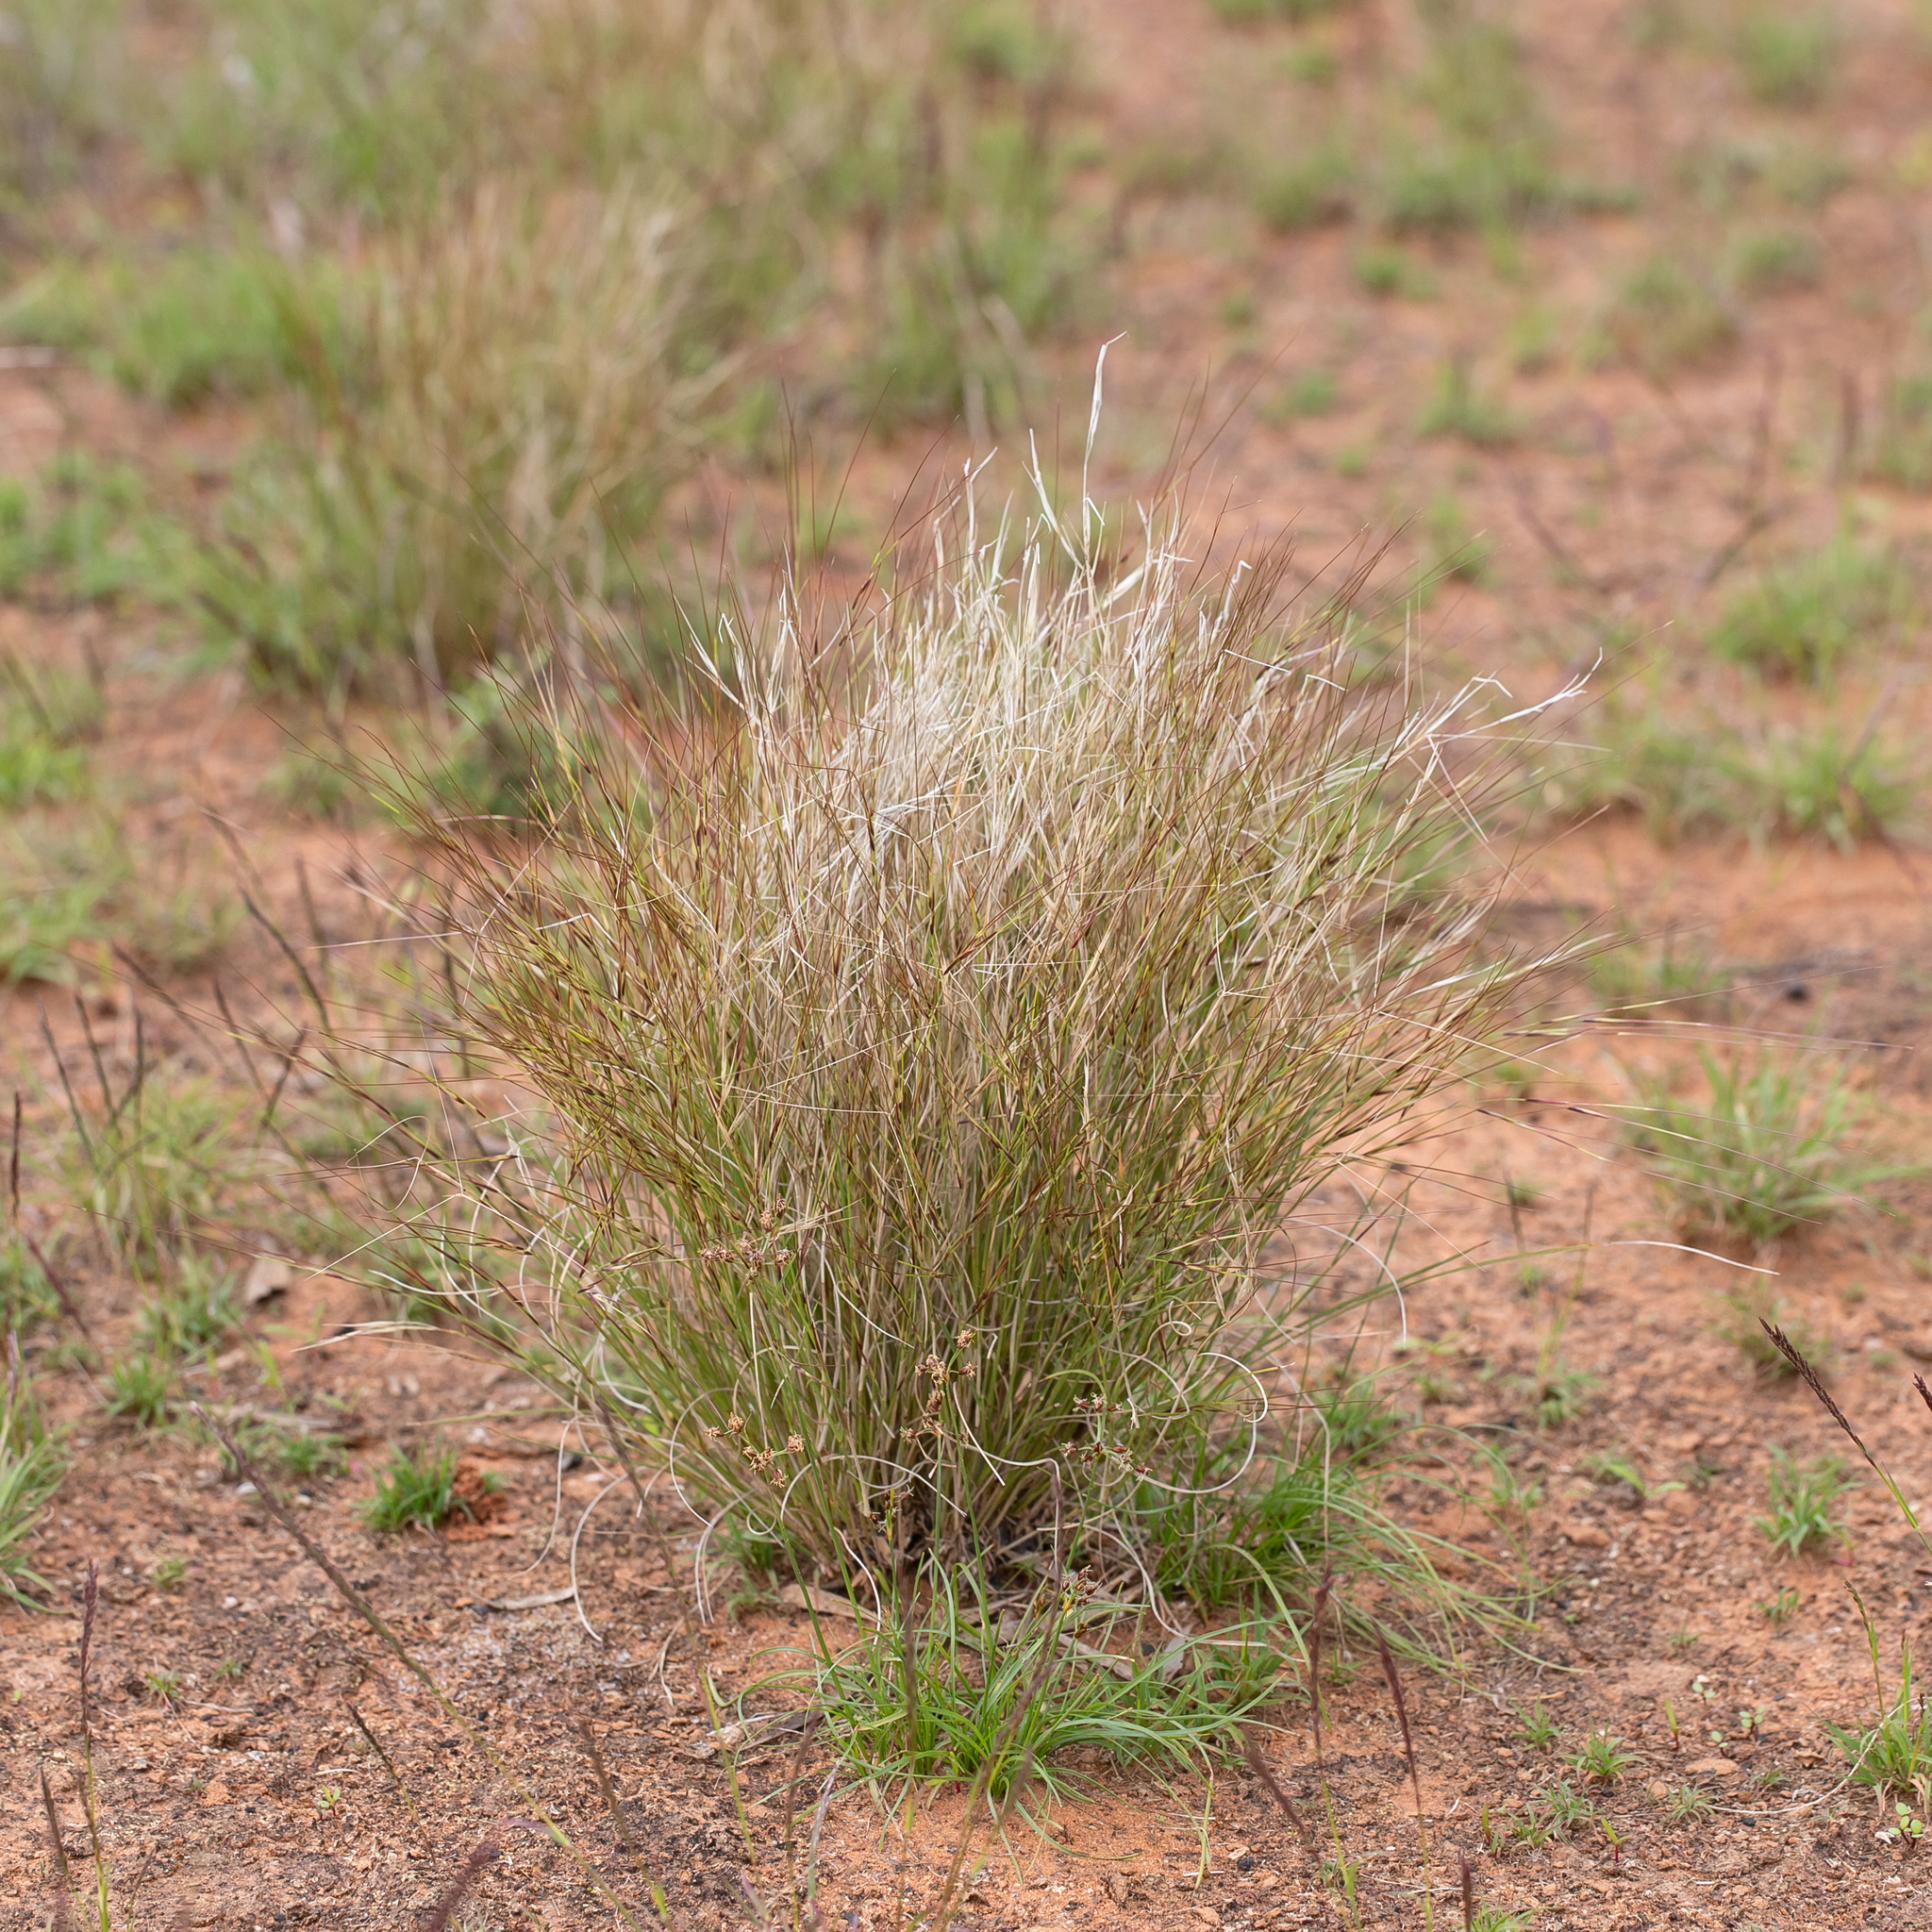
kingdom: Plantae
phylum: Tracheophyta
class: Liliopsida
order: Poales
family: Poaceae
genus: Aristida
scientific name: Aristida contorta
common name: Bunch kerosene grass
